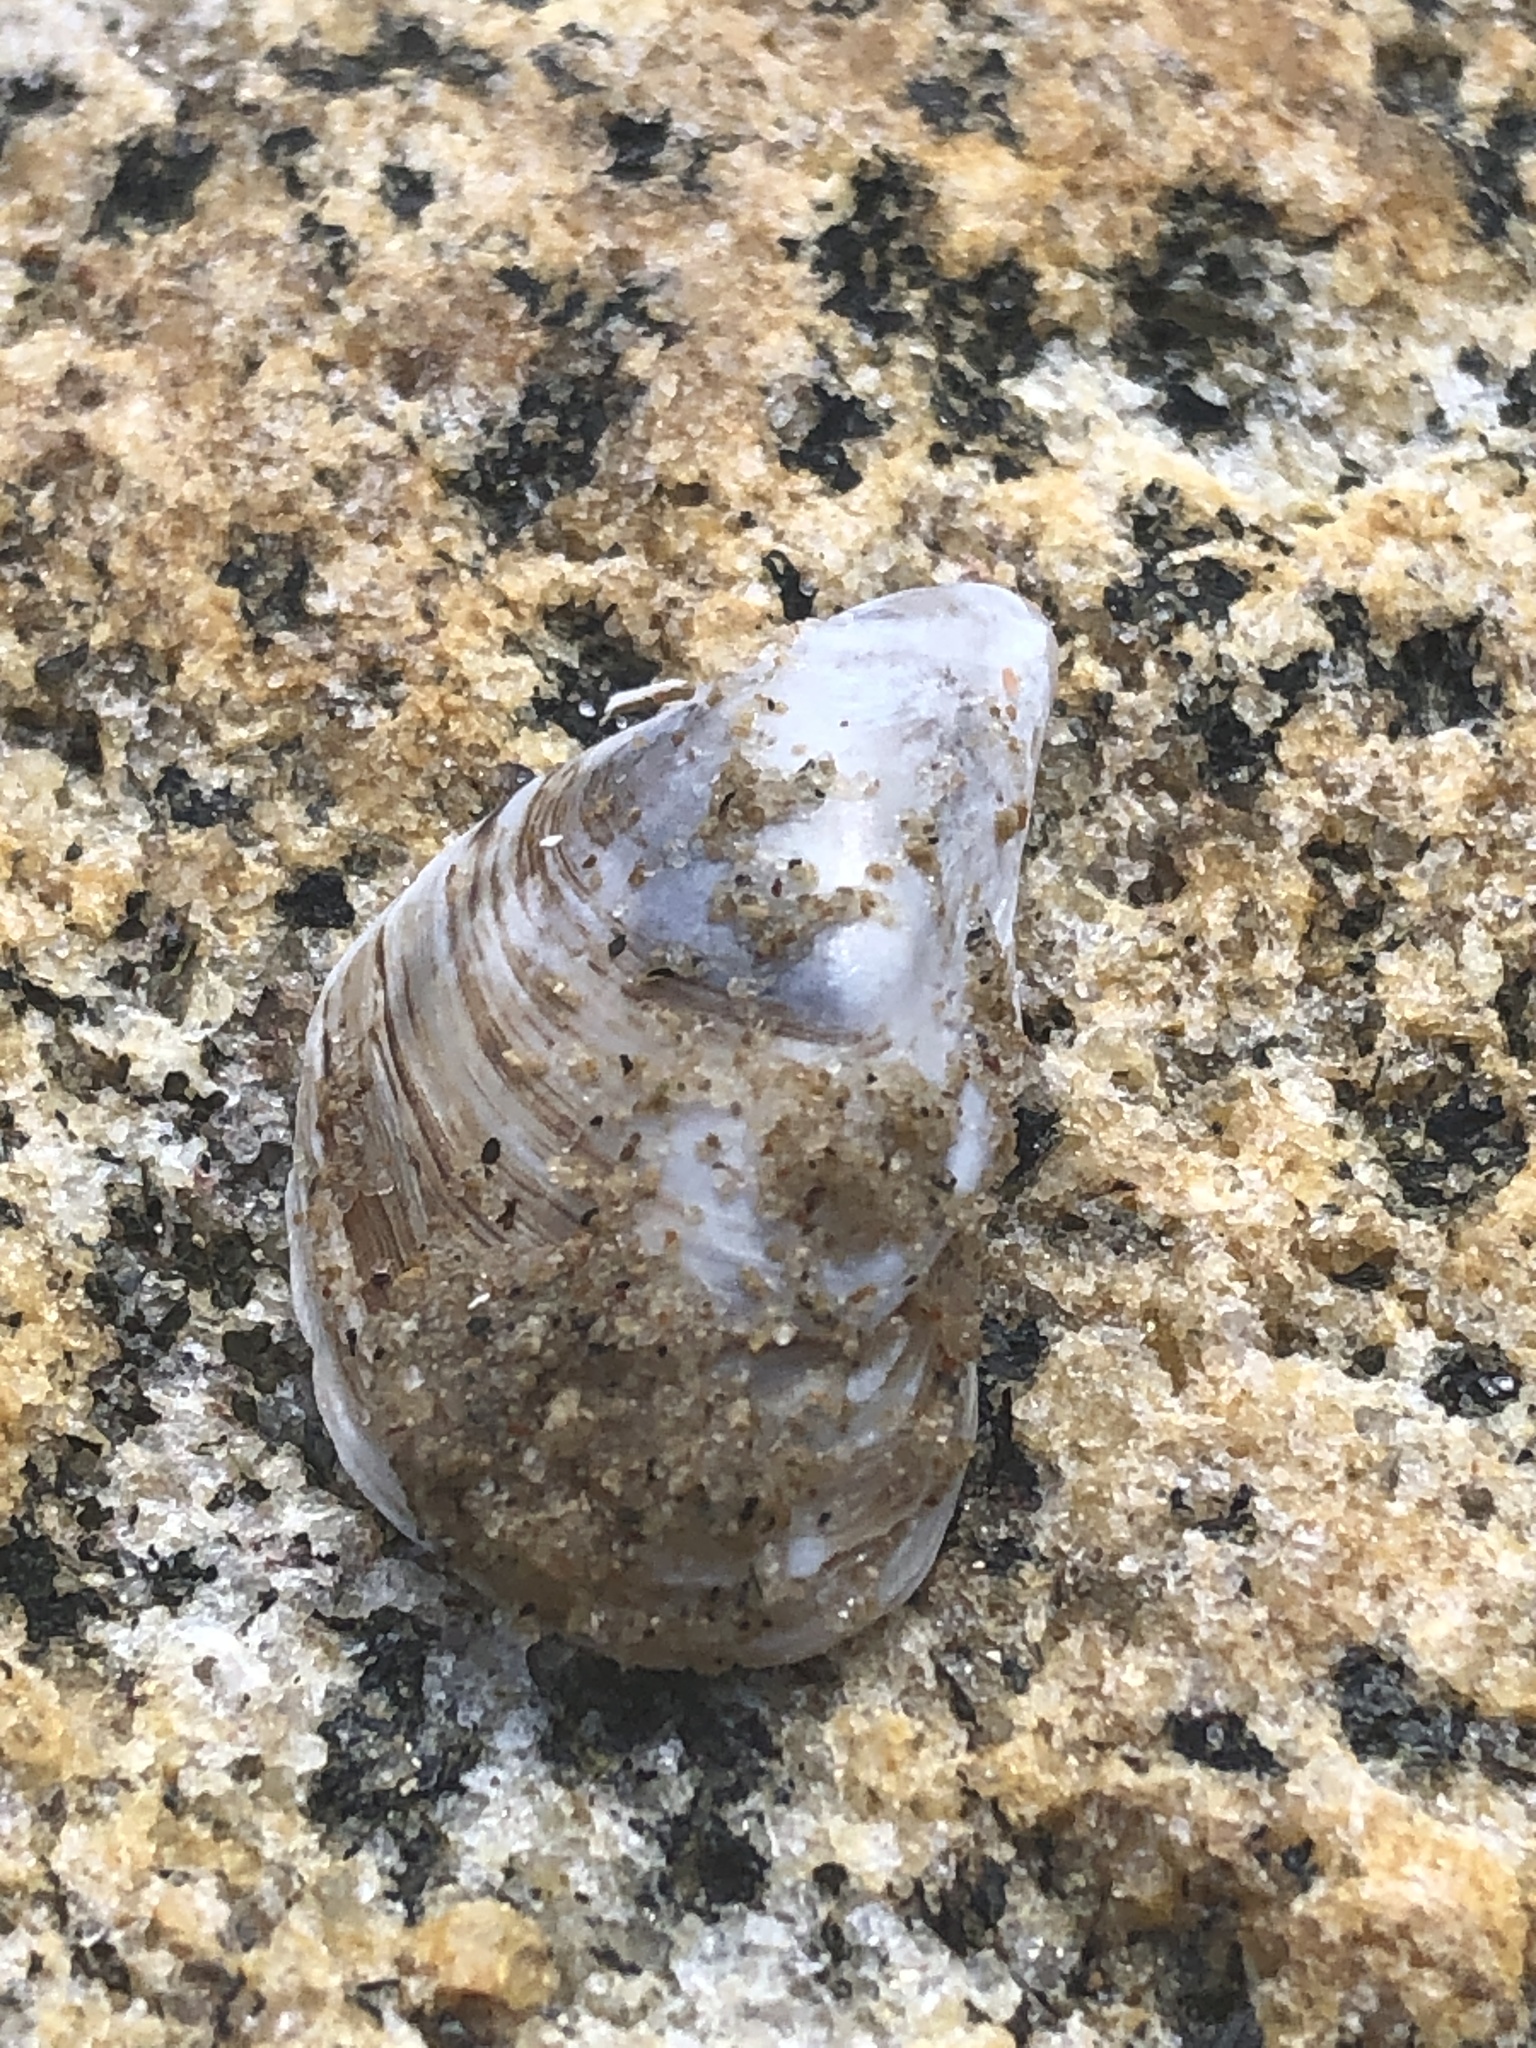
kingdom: Animalia
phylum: Mollusca
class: Bivalvia
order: Myida
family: Dreissenidae
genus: Dreissena
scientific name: Dreissena bugensis
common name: Quagga mussel
